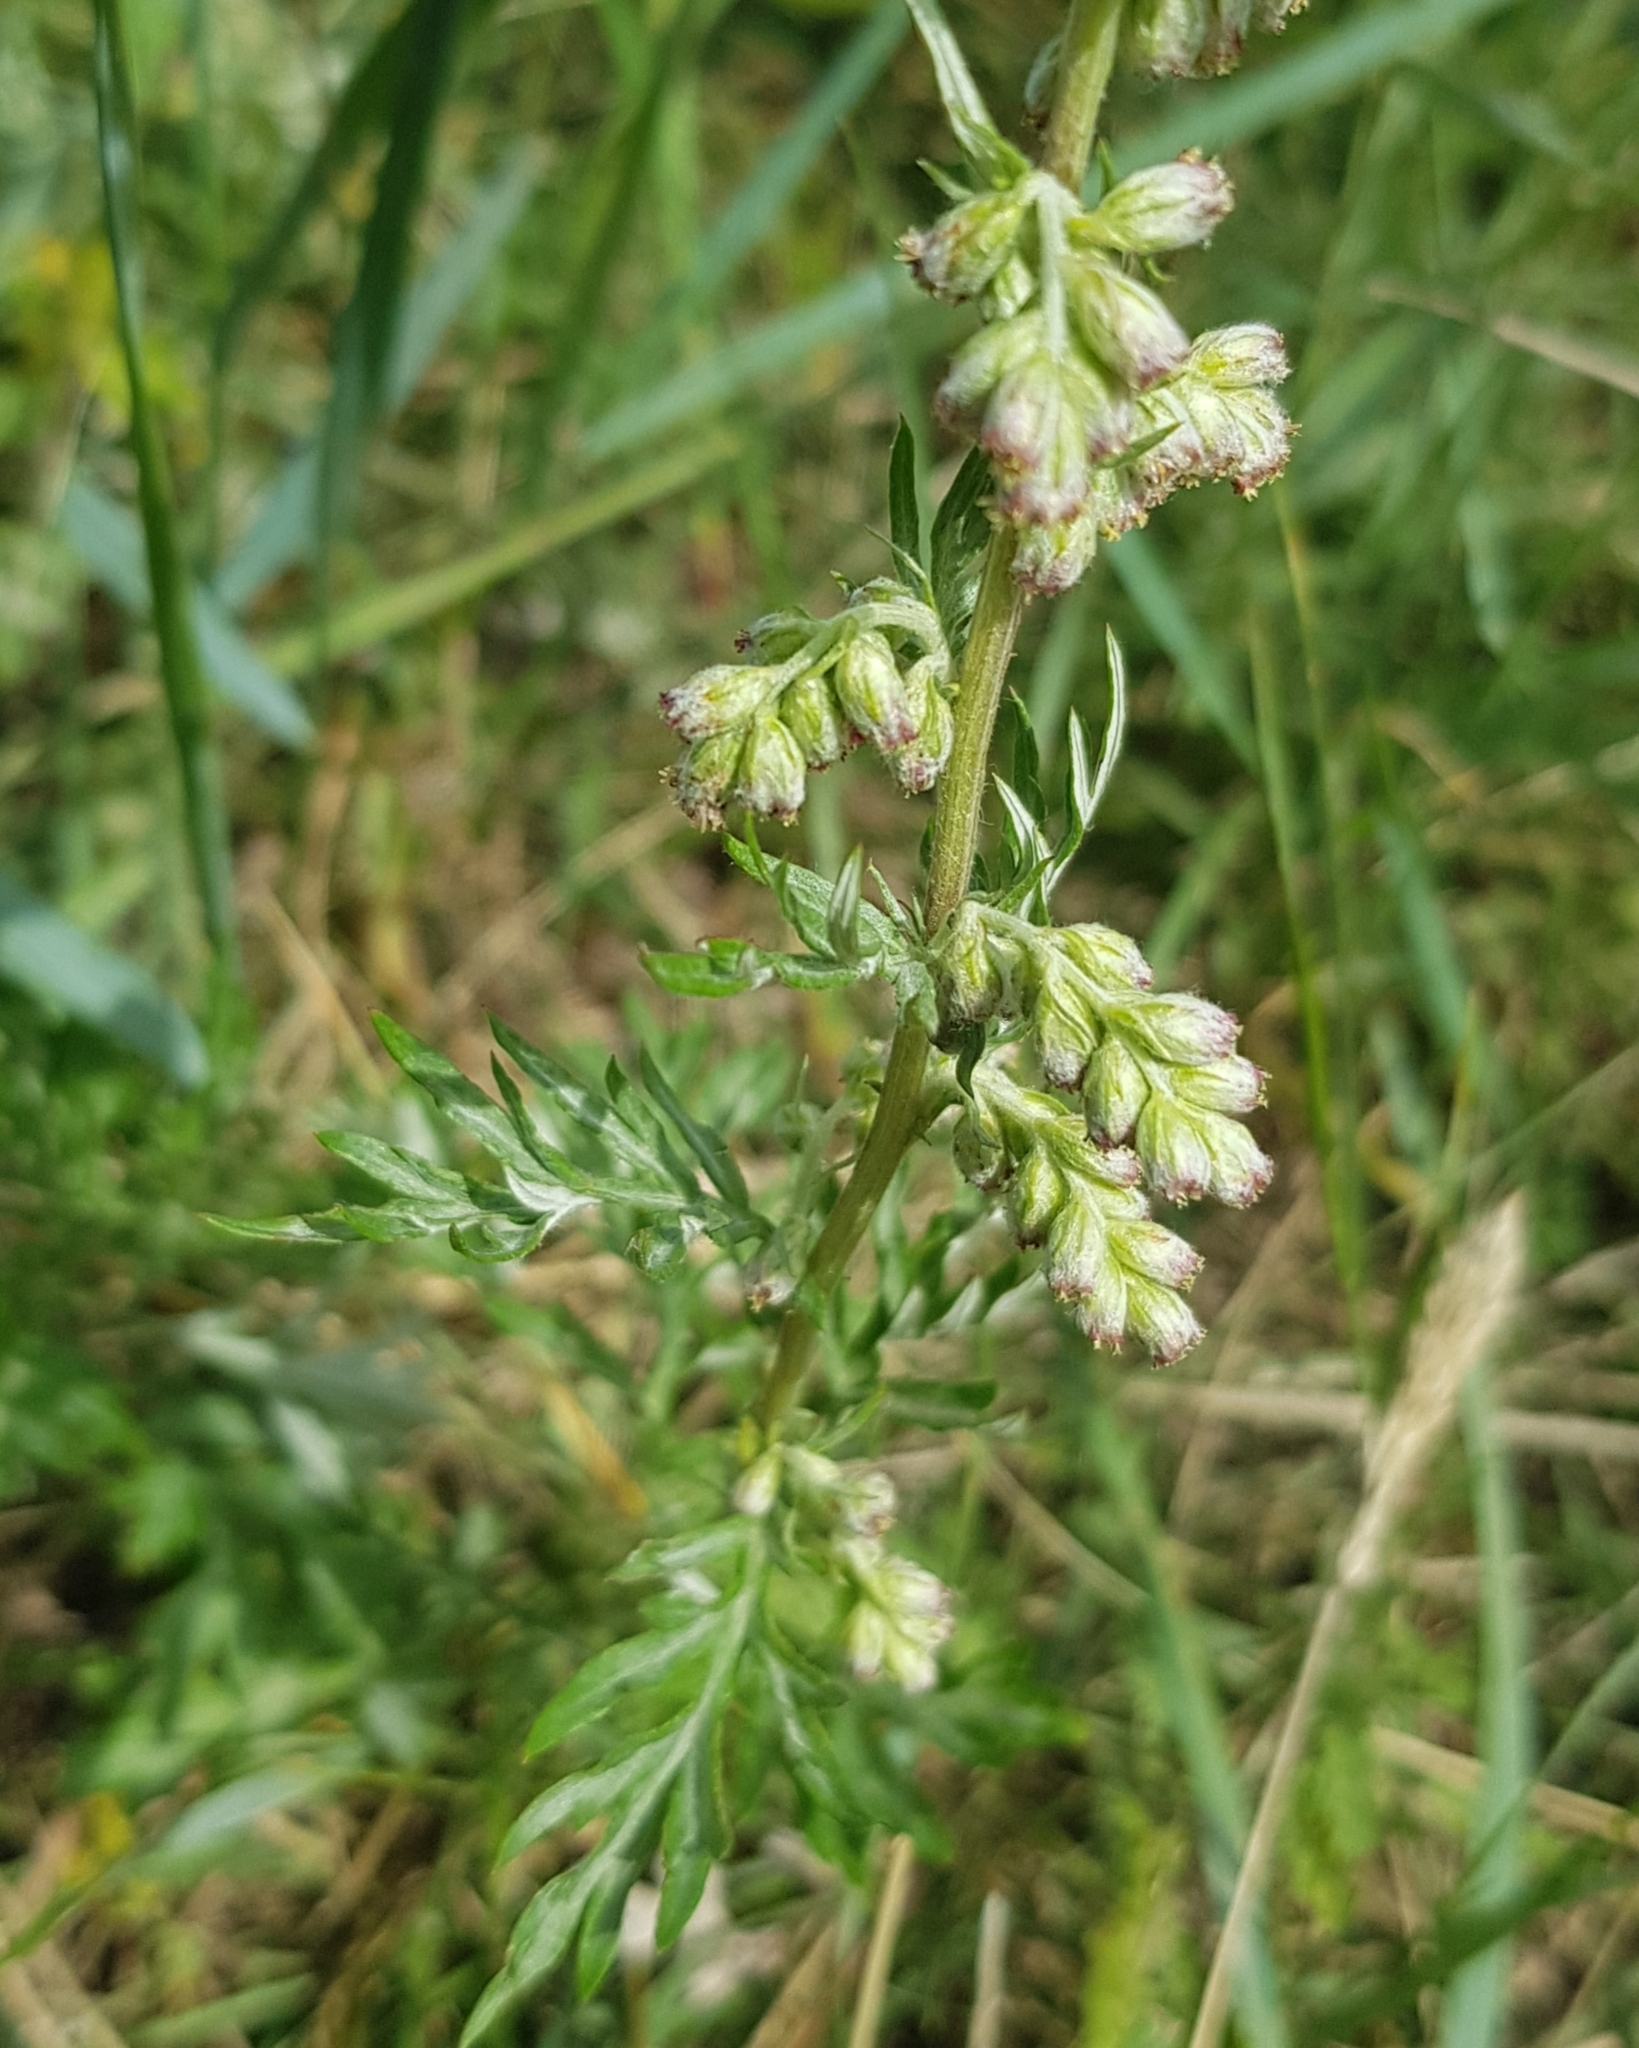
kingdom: Plantae
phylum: Tracheophyta
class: Magnoliopsida
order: Asterales
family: Asteraceae
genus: Artemisia
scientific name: Artemisia vulgaris
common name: Mugwort
